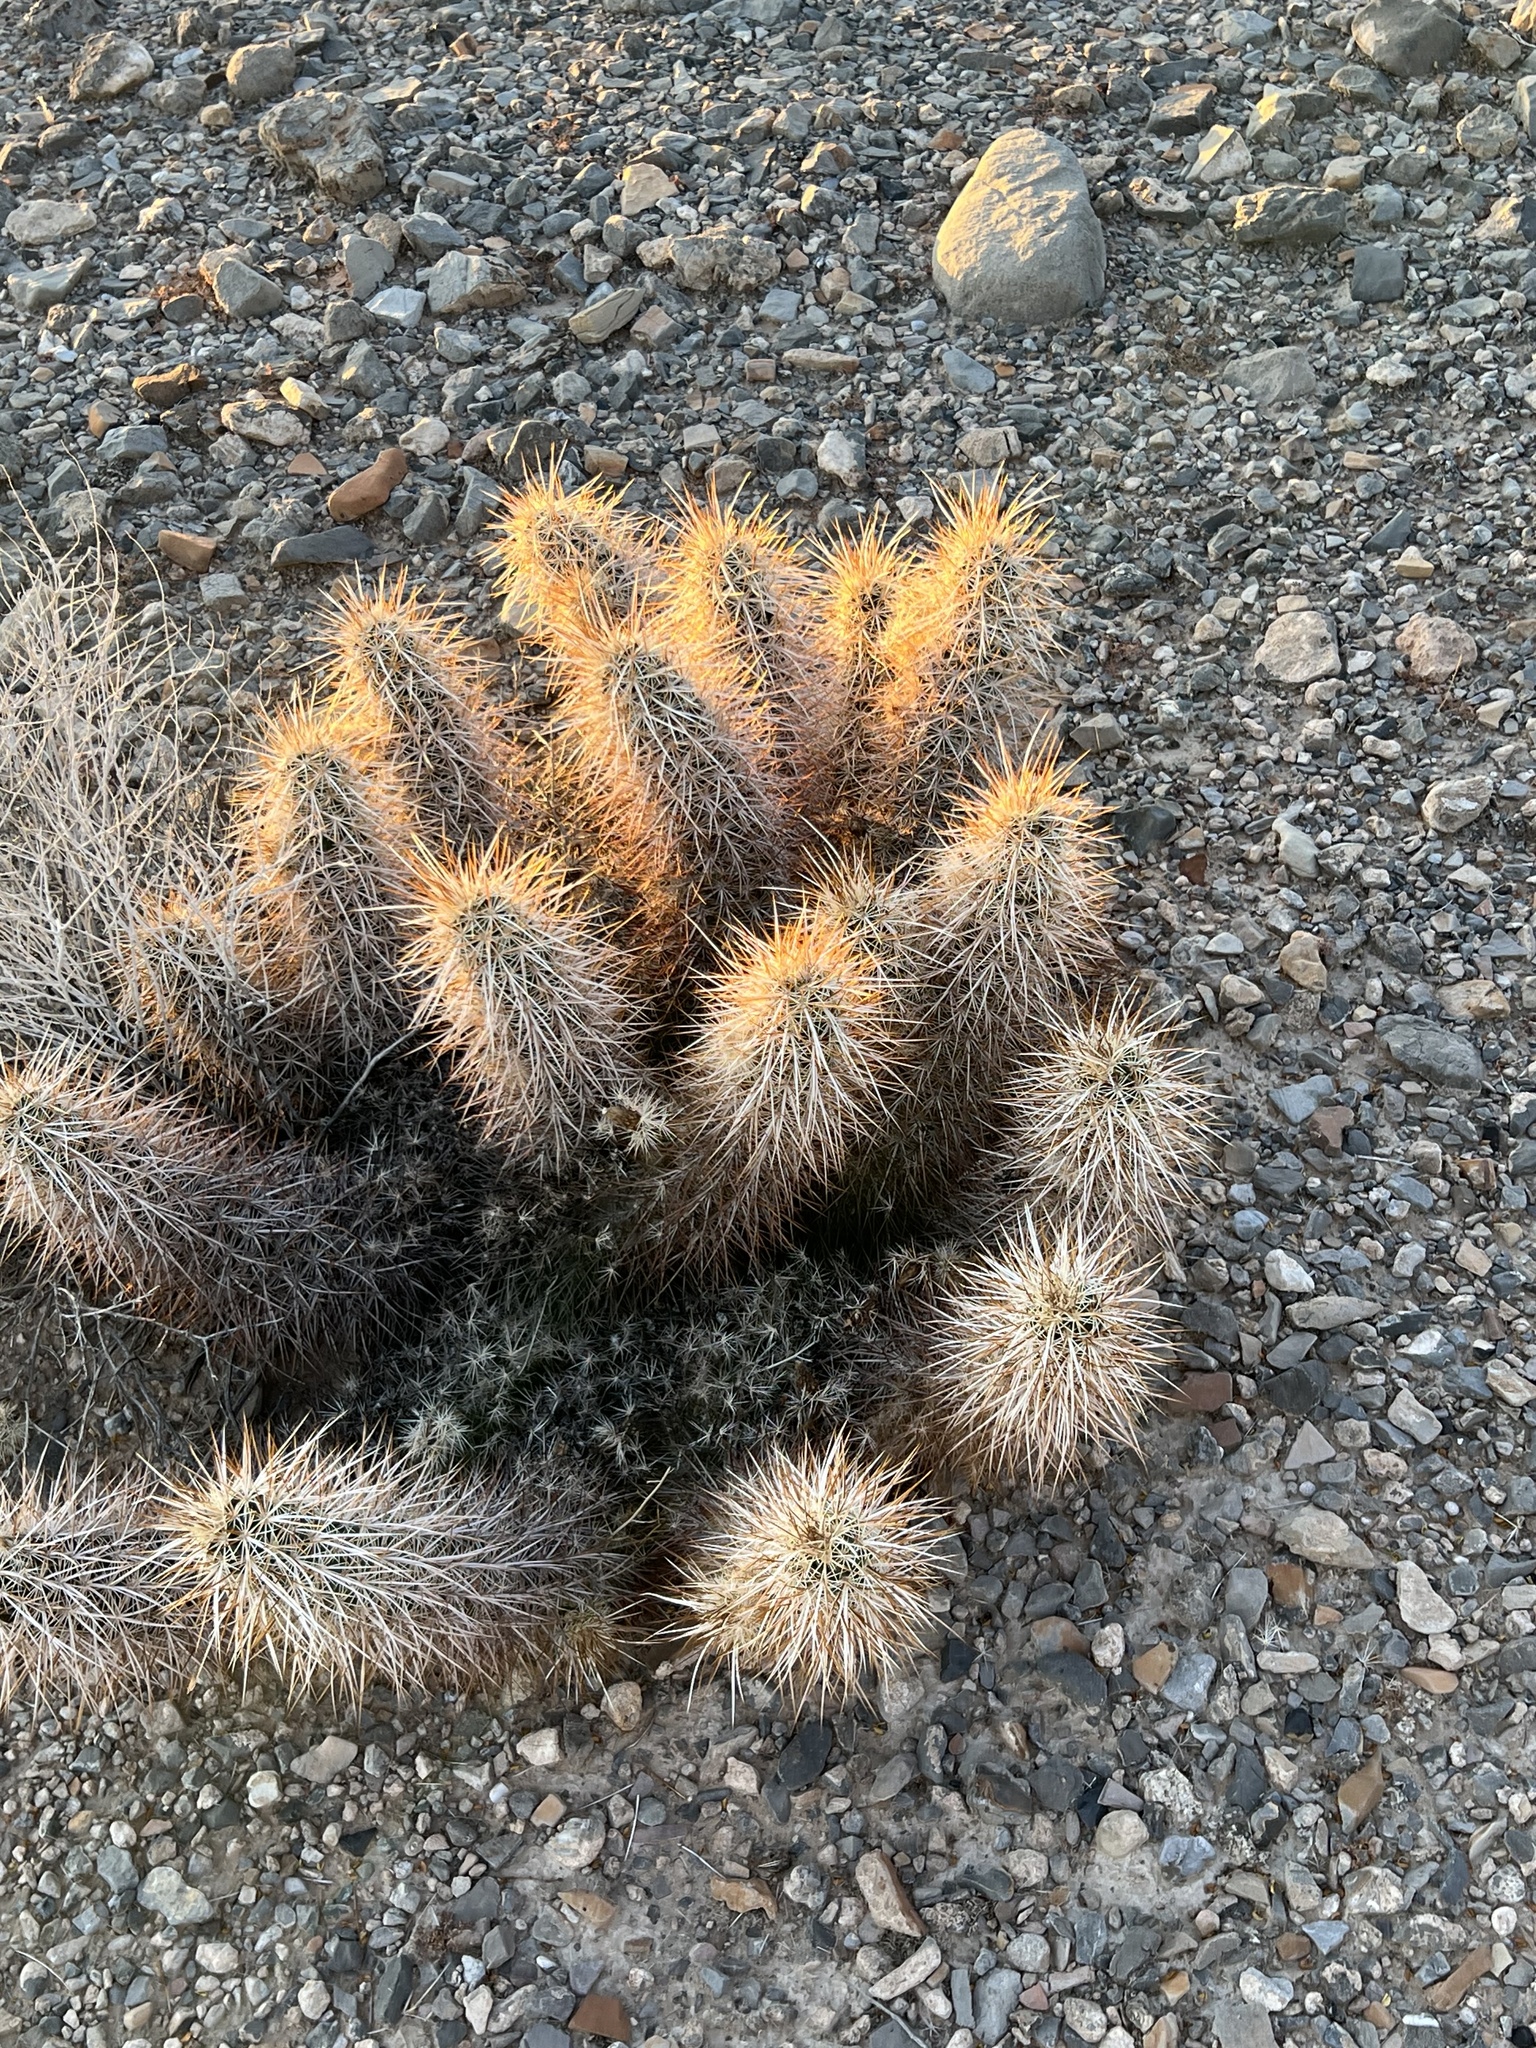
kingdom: Plantae
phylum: Tracheophyta
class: Magnoliopsida
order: Caryophyllales
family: Cactaceae
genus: Echinocereus
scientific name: Echinocereus engelmannii
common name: Engelmann's hedgehog cactus
